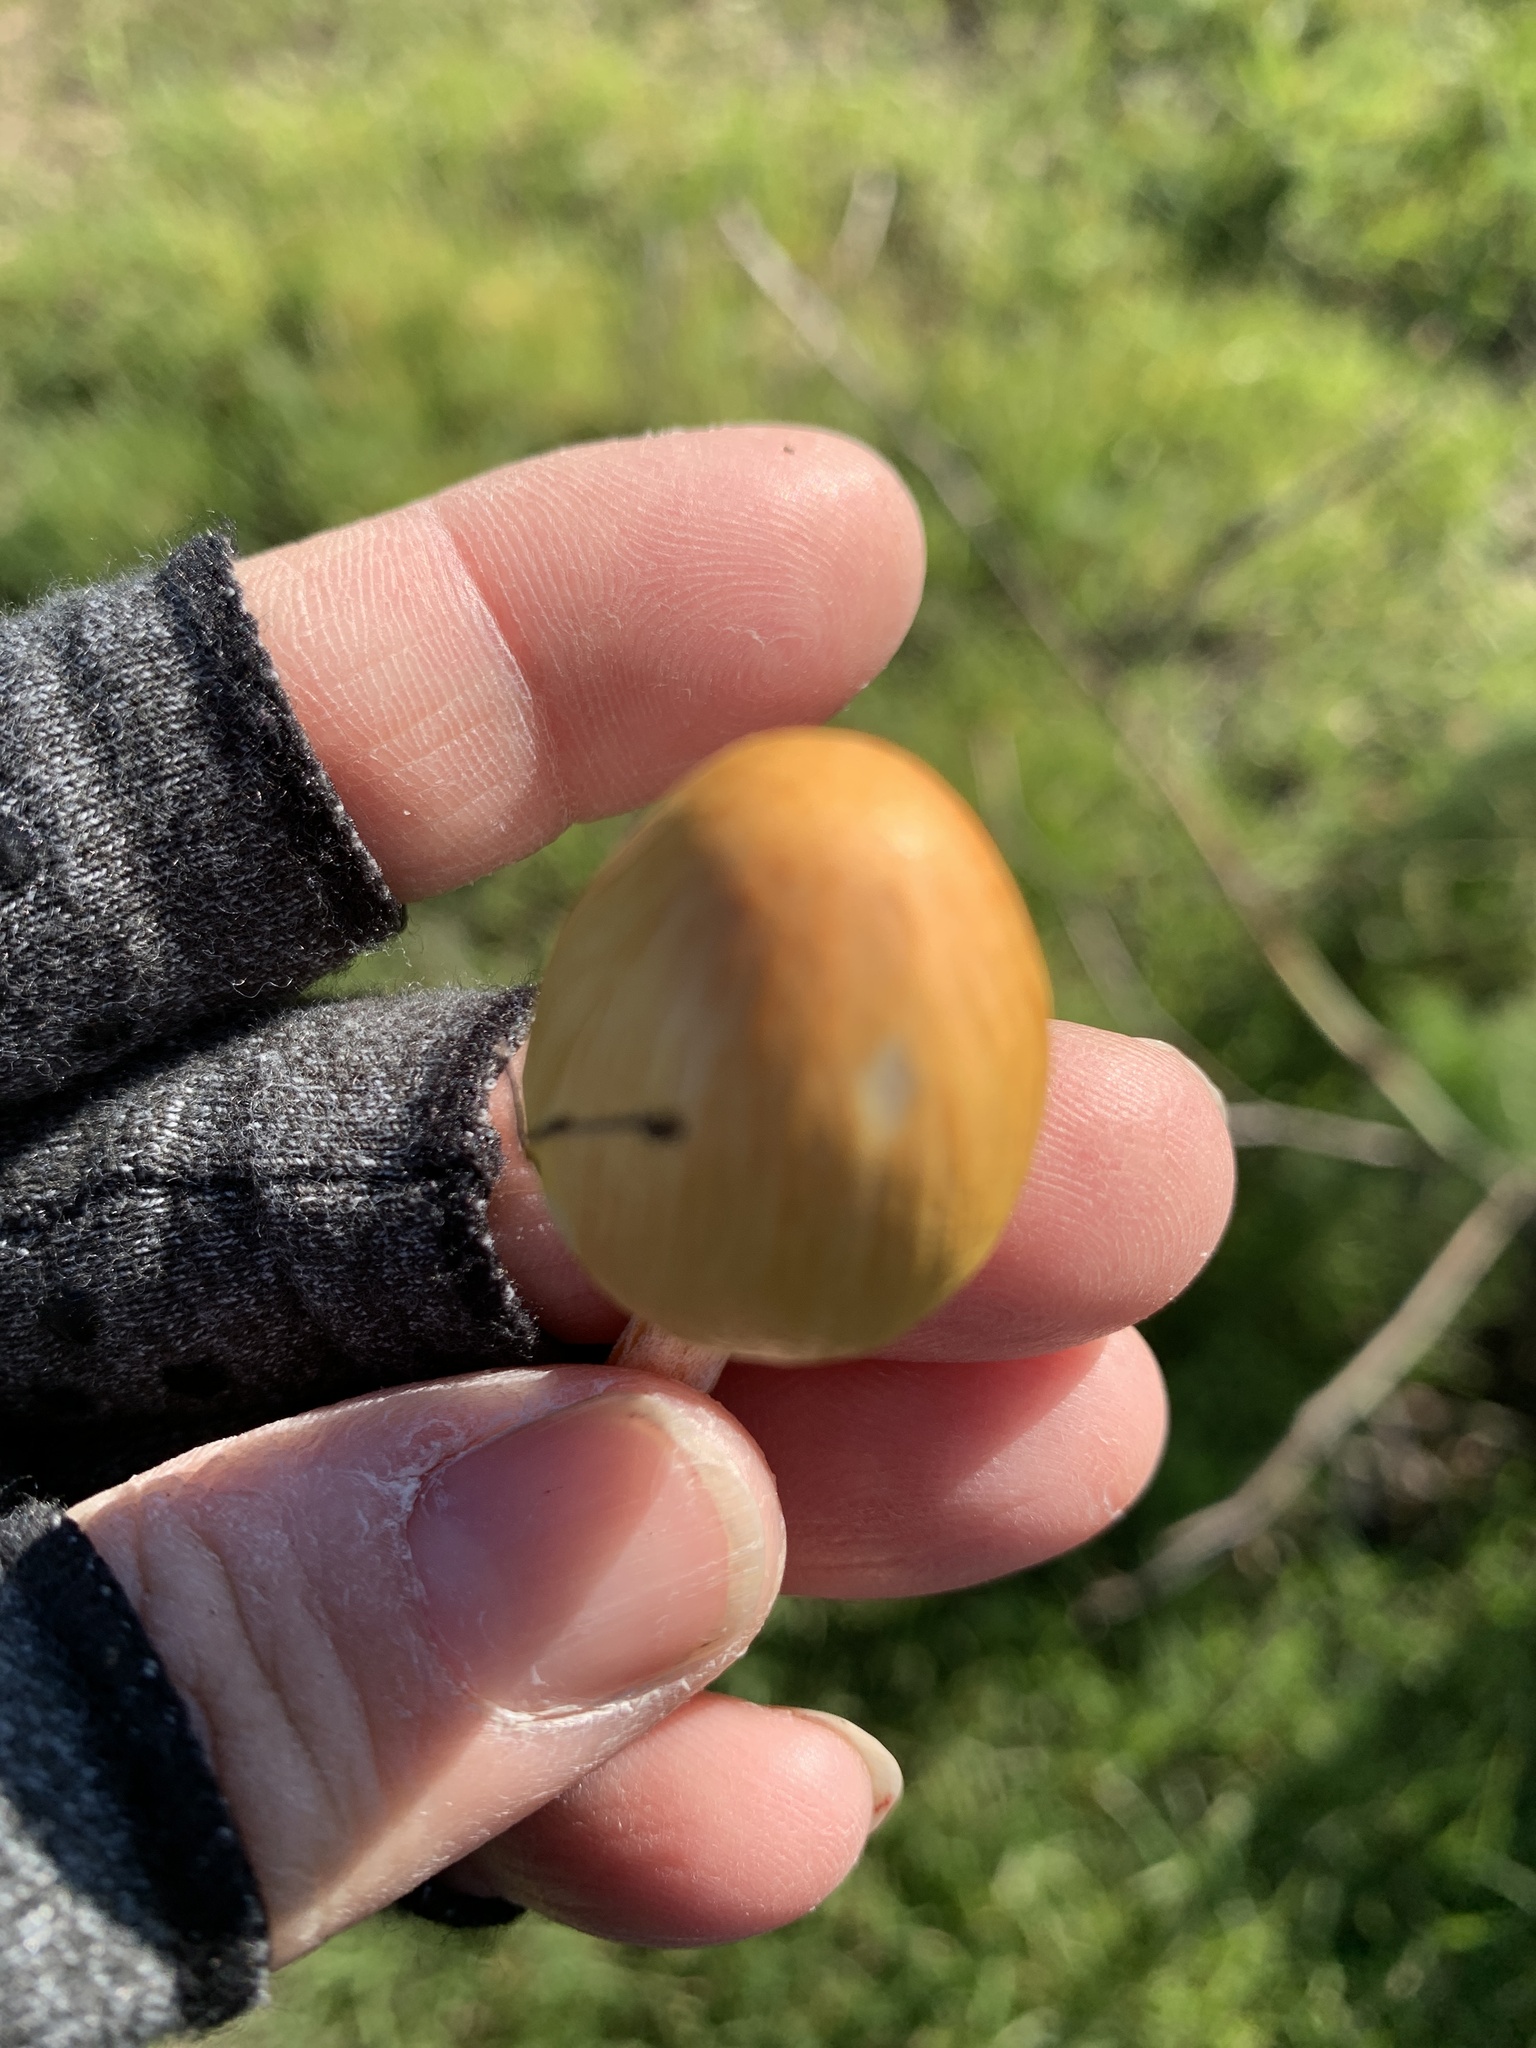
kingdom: Fungi
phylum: Basidiomycota
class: Agaricomycetes
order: Agaricales
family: Bolbitiaceae
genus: Bolbitius
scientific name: Bolbitius titubans
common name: Yellow fieldcap
